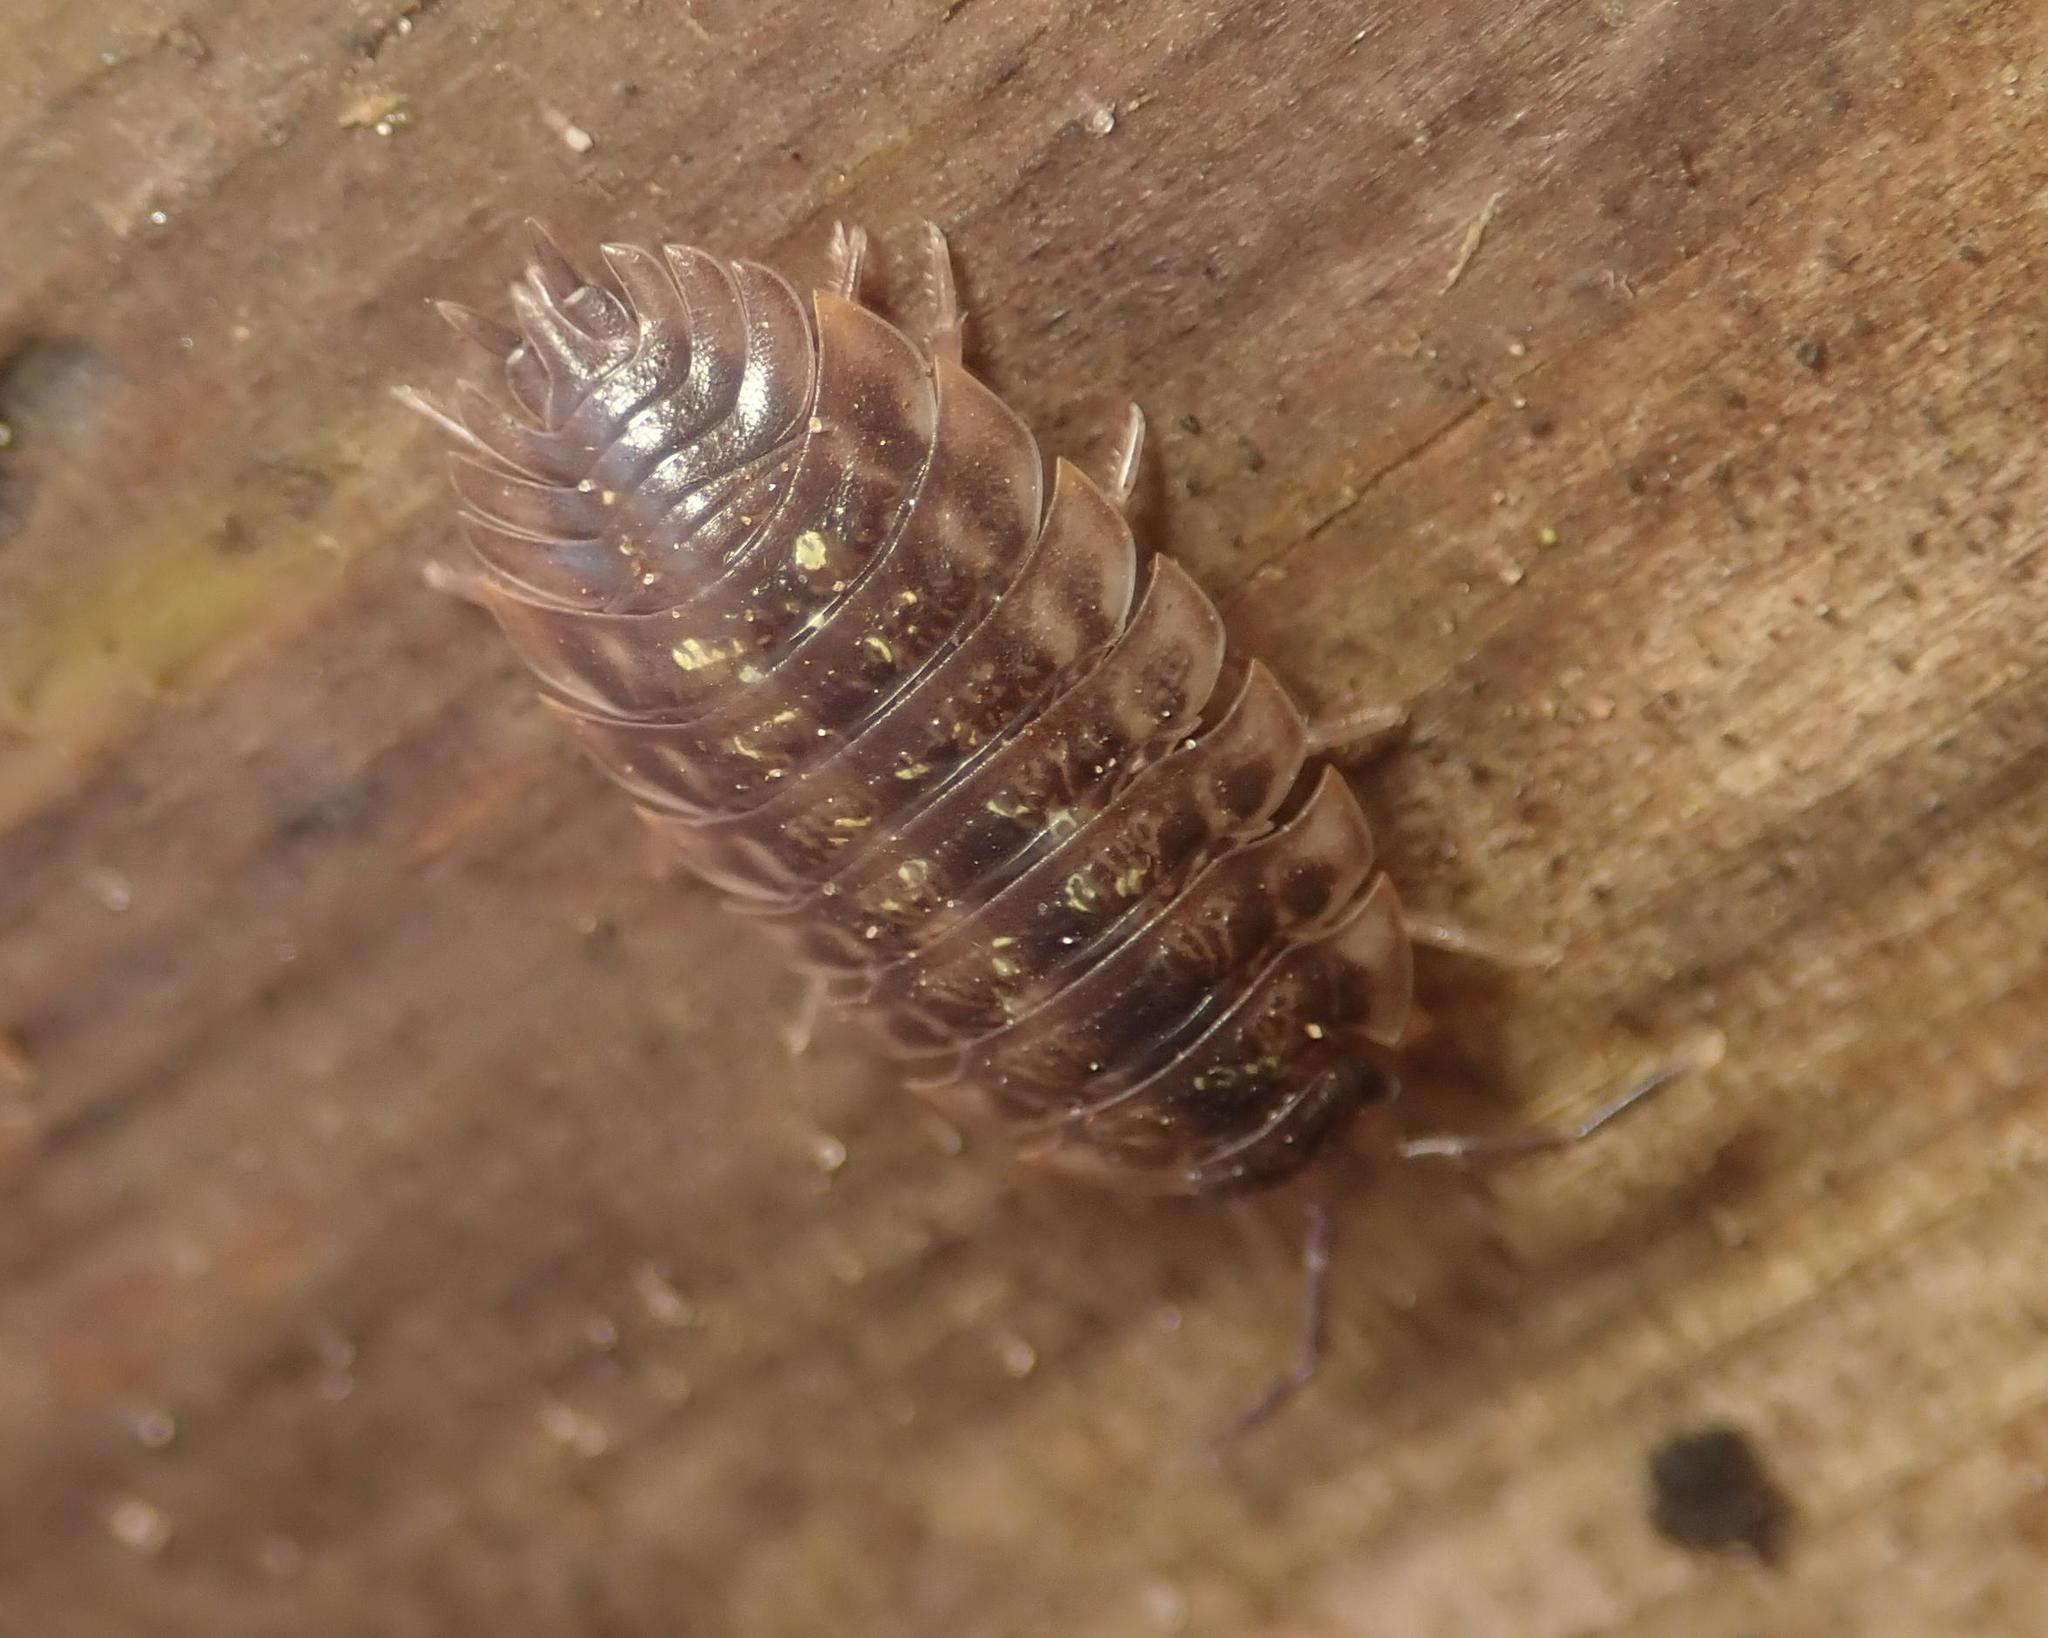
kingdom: Animalia
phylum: Arthropoda
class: Malacostraca
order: Isopoda
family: Oniscidae
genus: Oniscus
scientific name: Oniscus asellus
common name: Common shiny woodlouse
